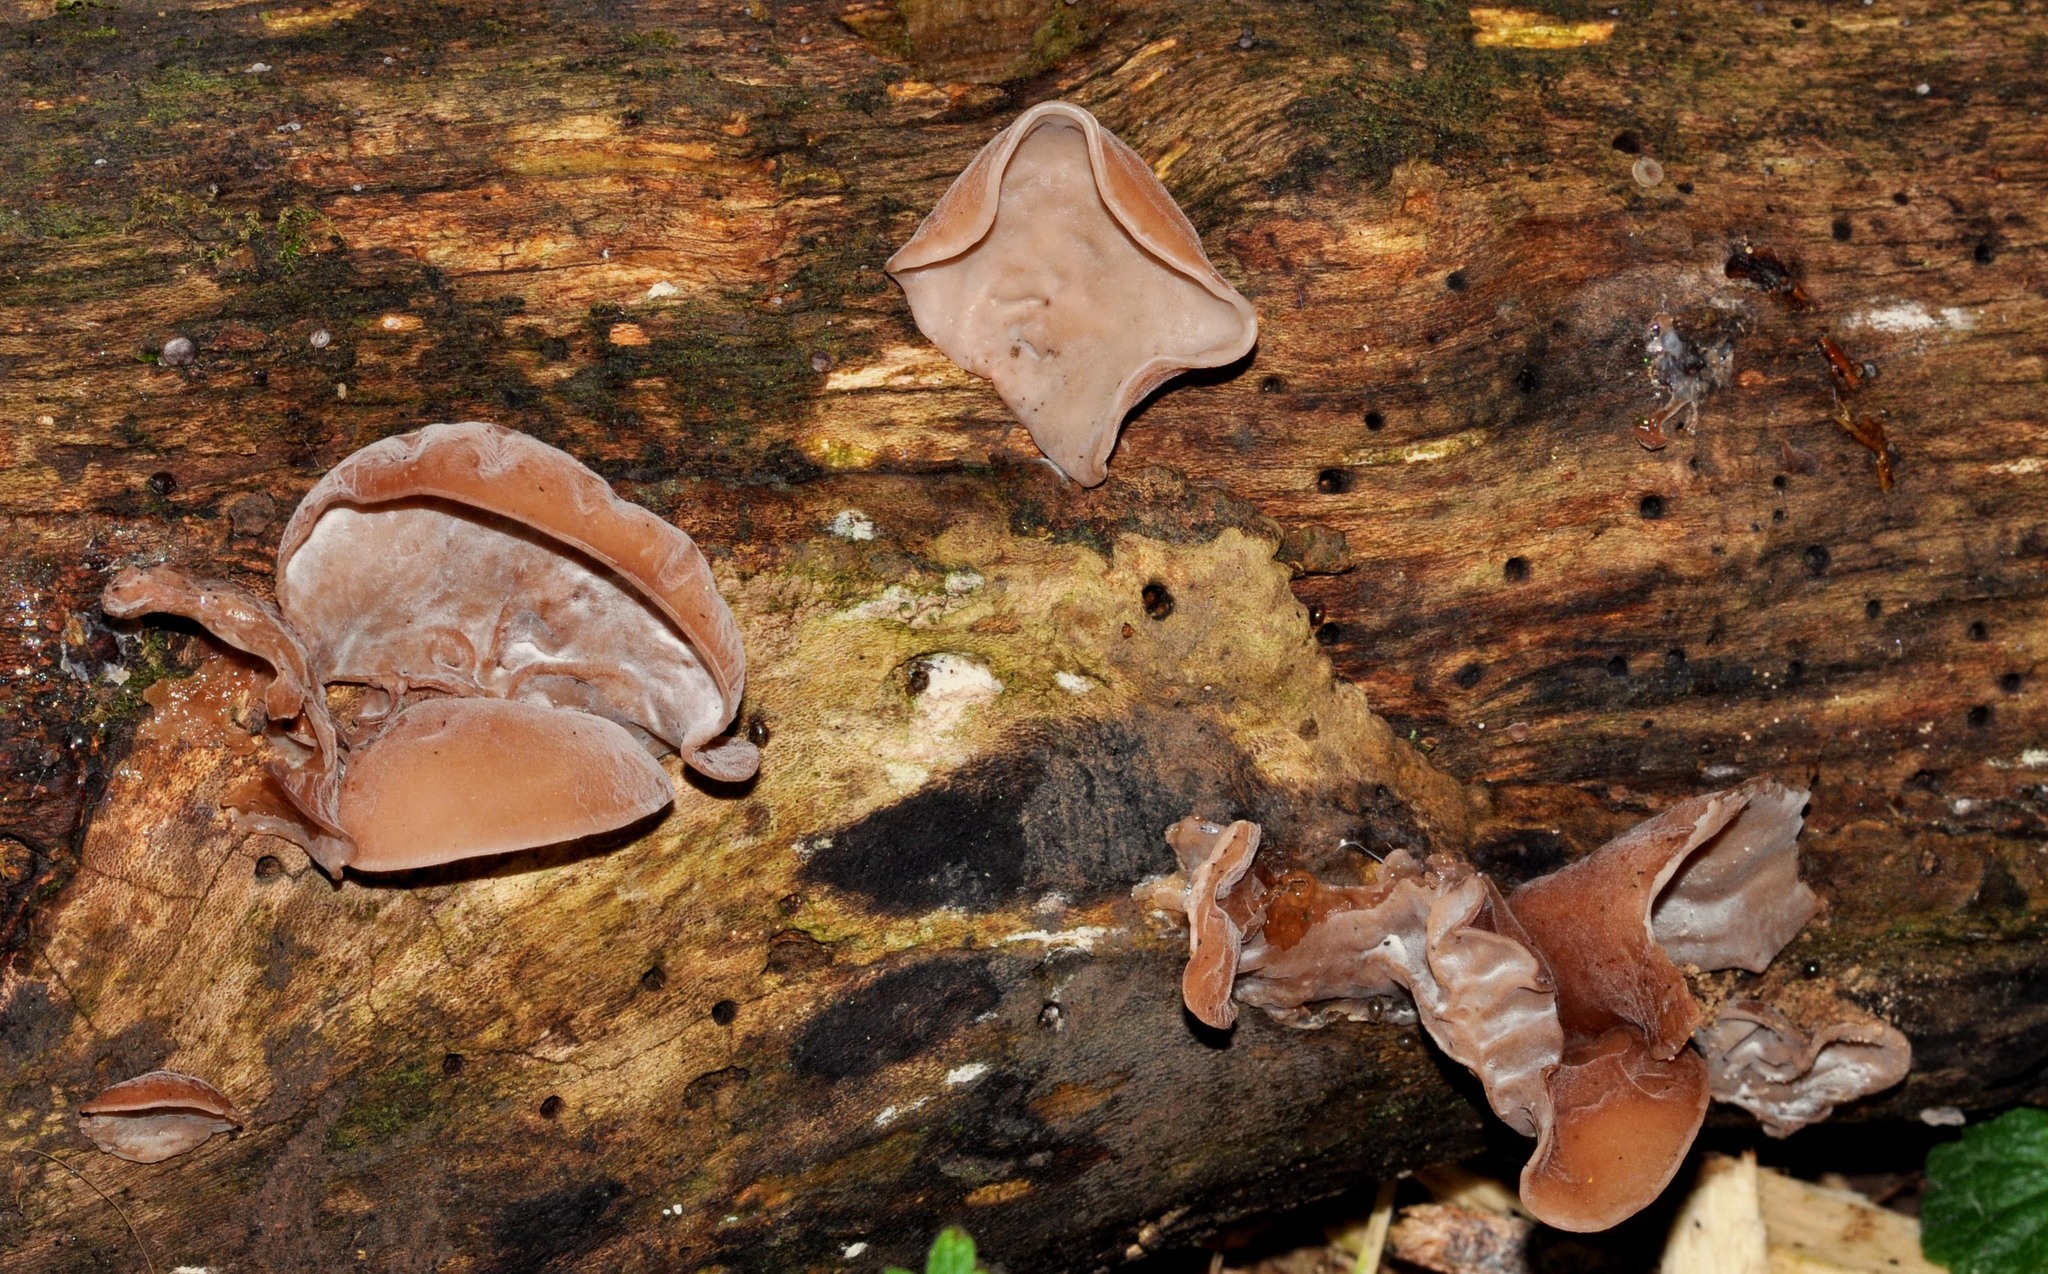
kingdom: Fungi
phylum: Basidiomycota
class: Agaricomycetes
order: Auriculariales
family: Auriculariaceae
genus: Auricularia
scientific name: Auricularia auricula-judae
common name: Jelly ear
